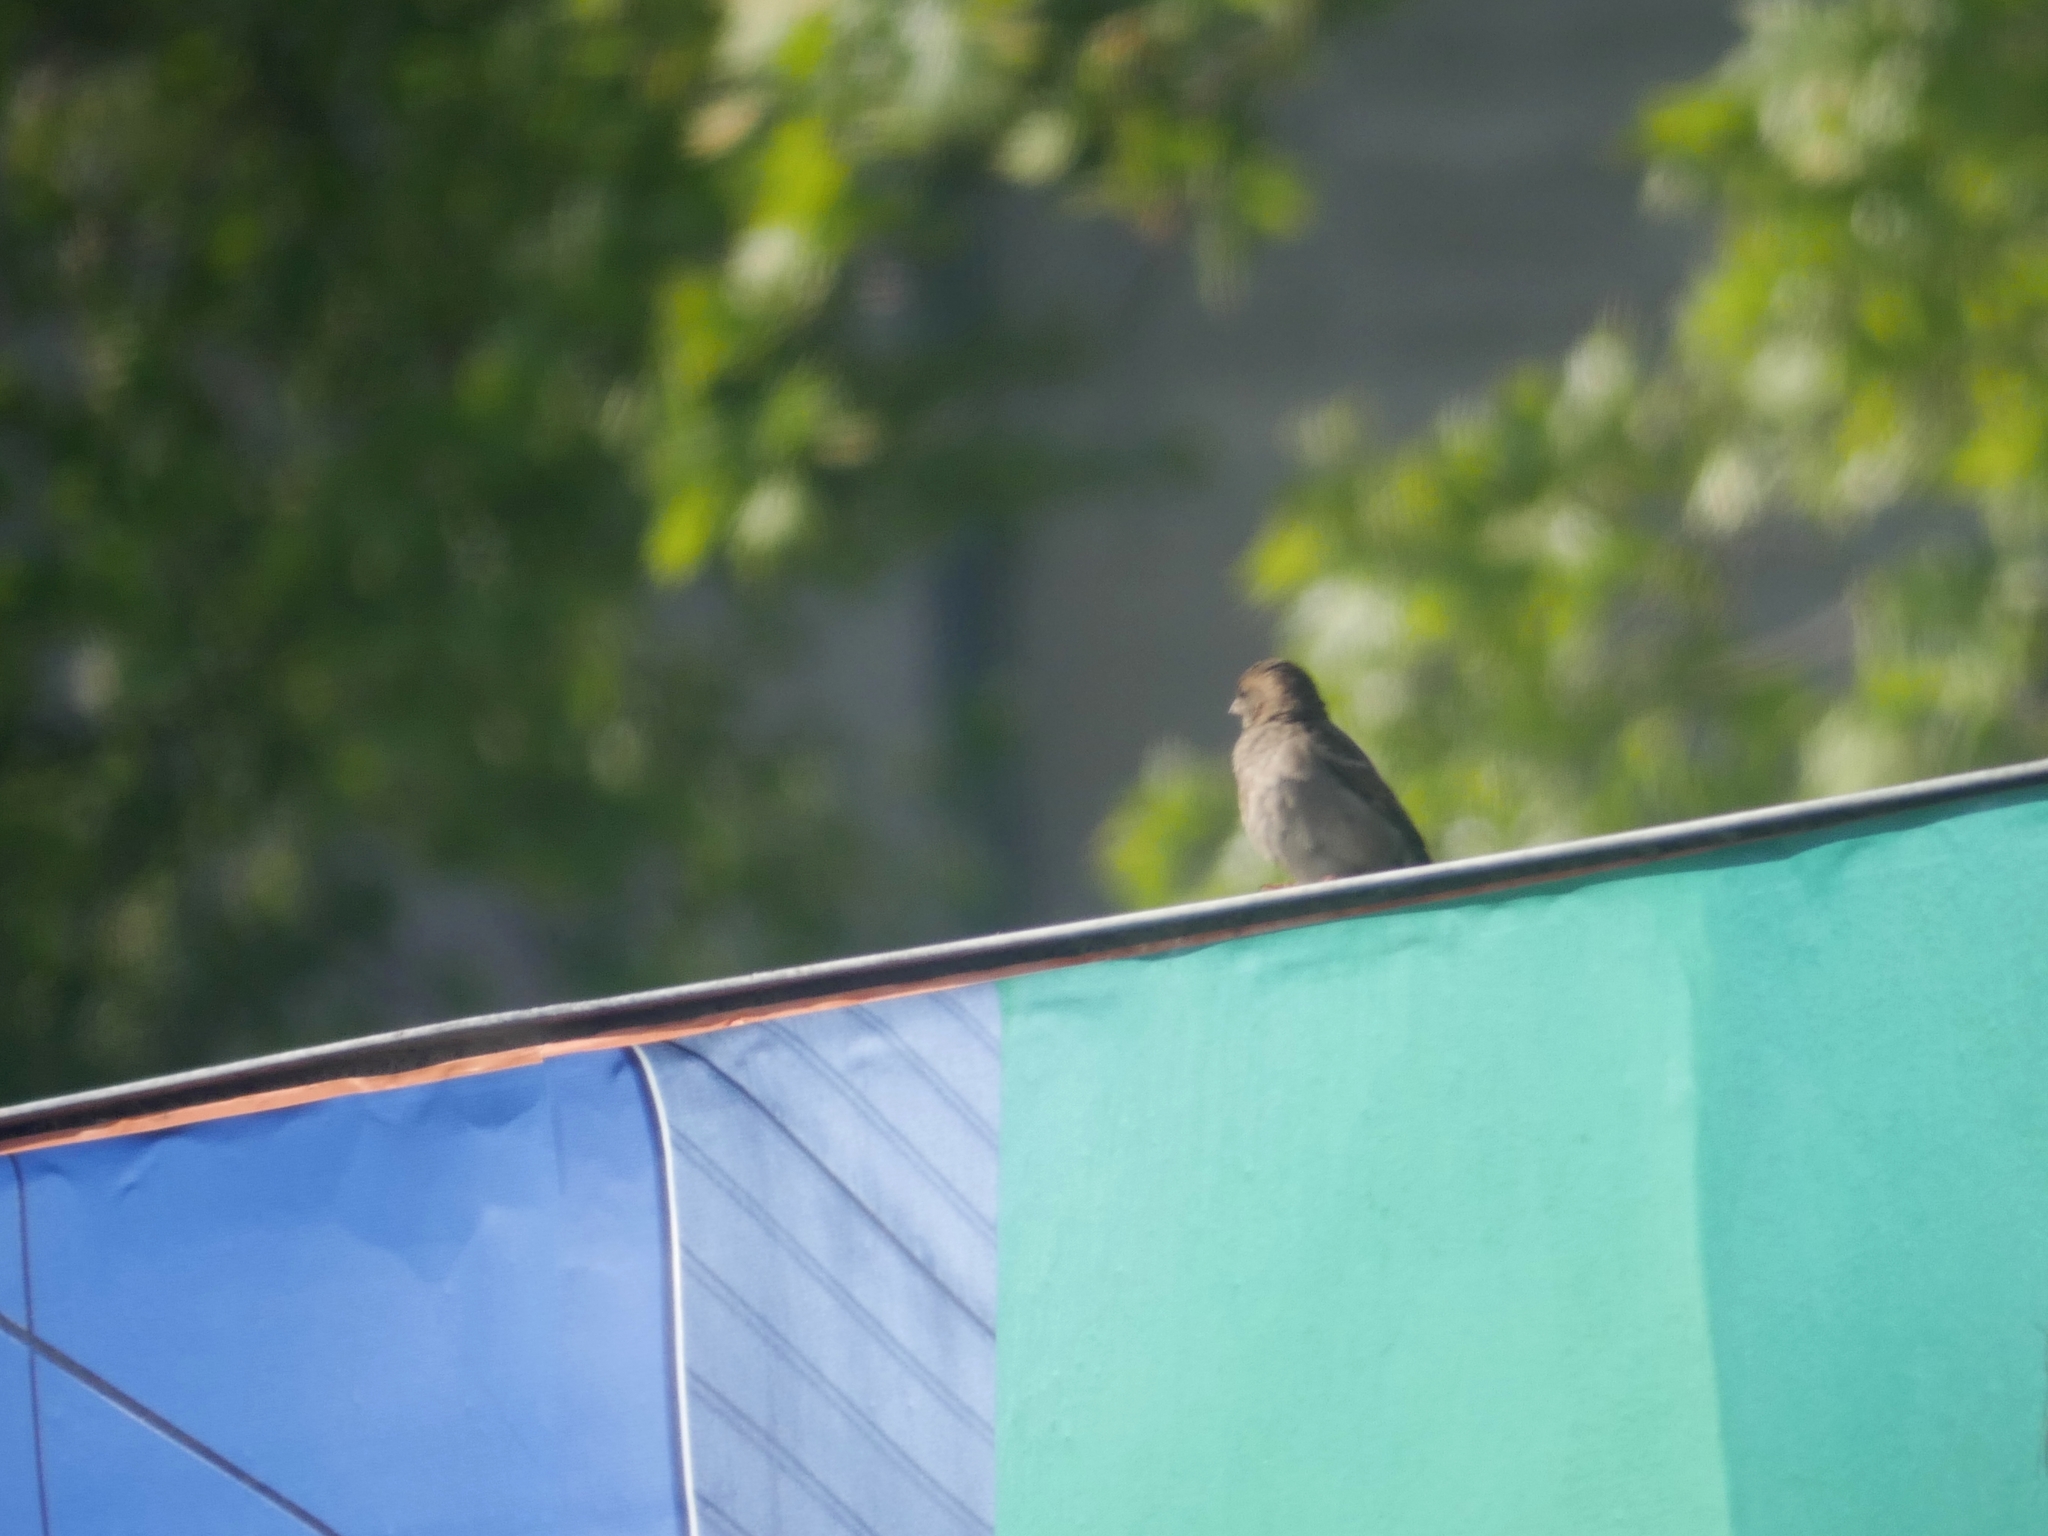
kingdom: Animalia
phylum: Chordata
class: Aves
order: Passeriformes
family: Passeridae
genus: Passer
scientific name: Passer domesticus
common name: House sparrow
